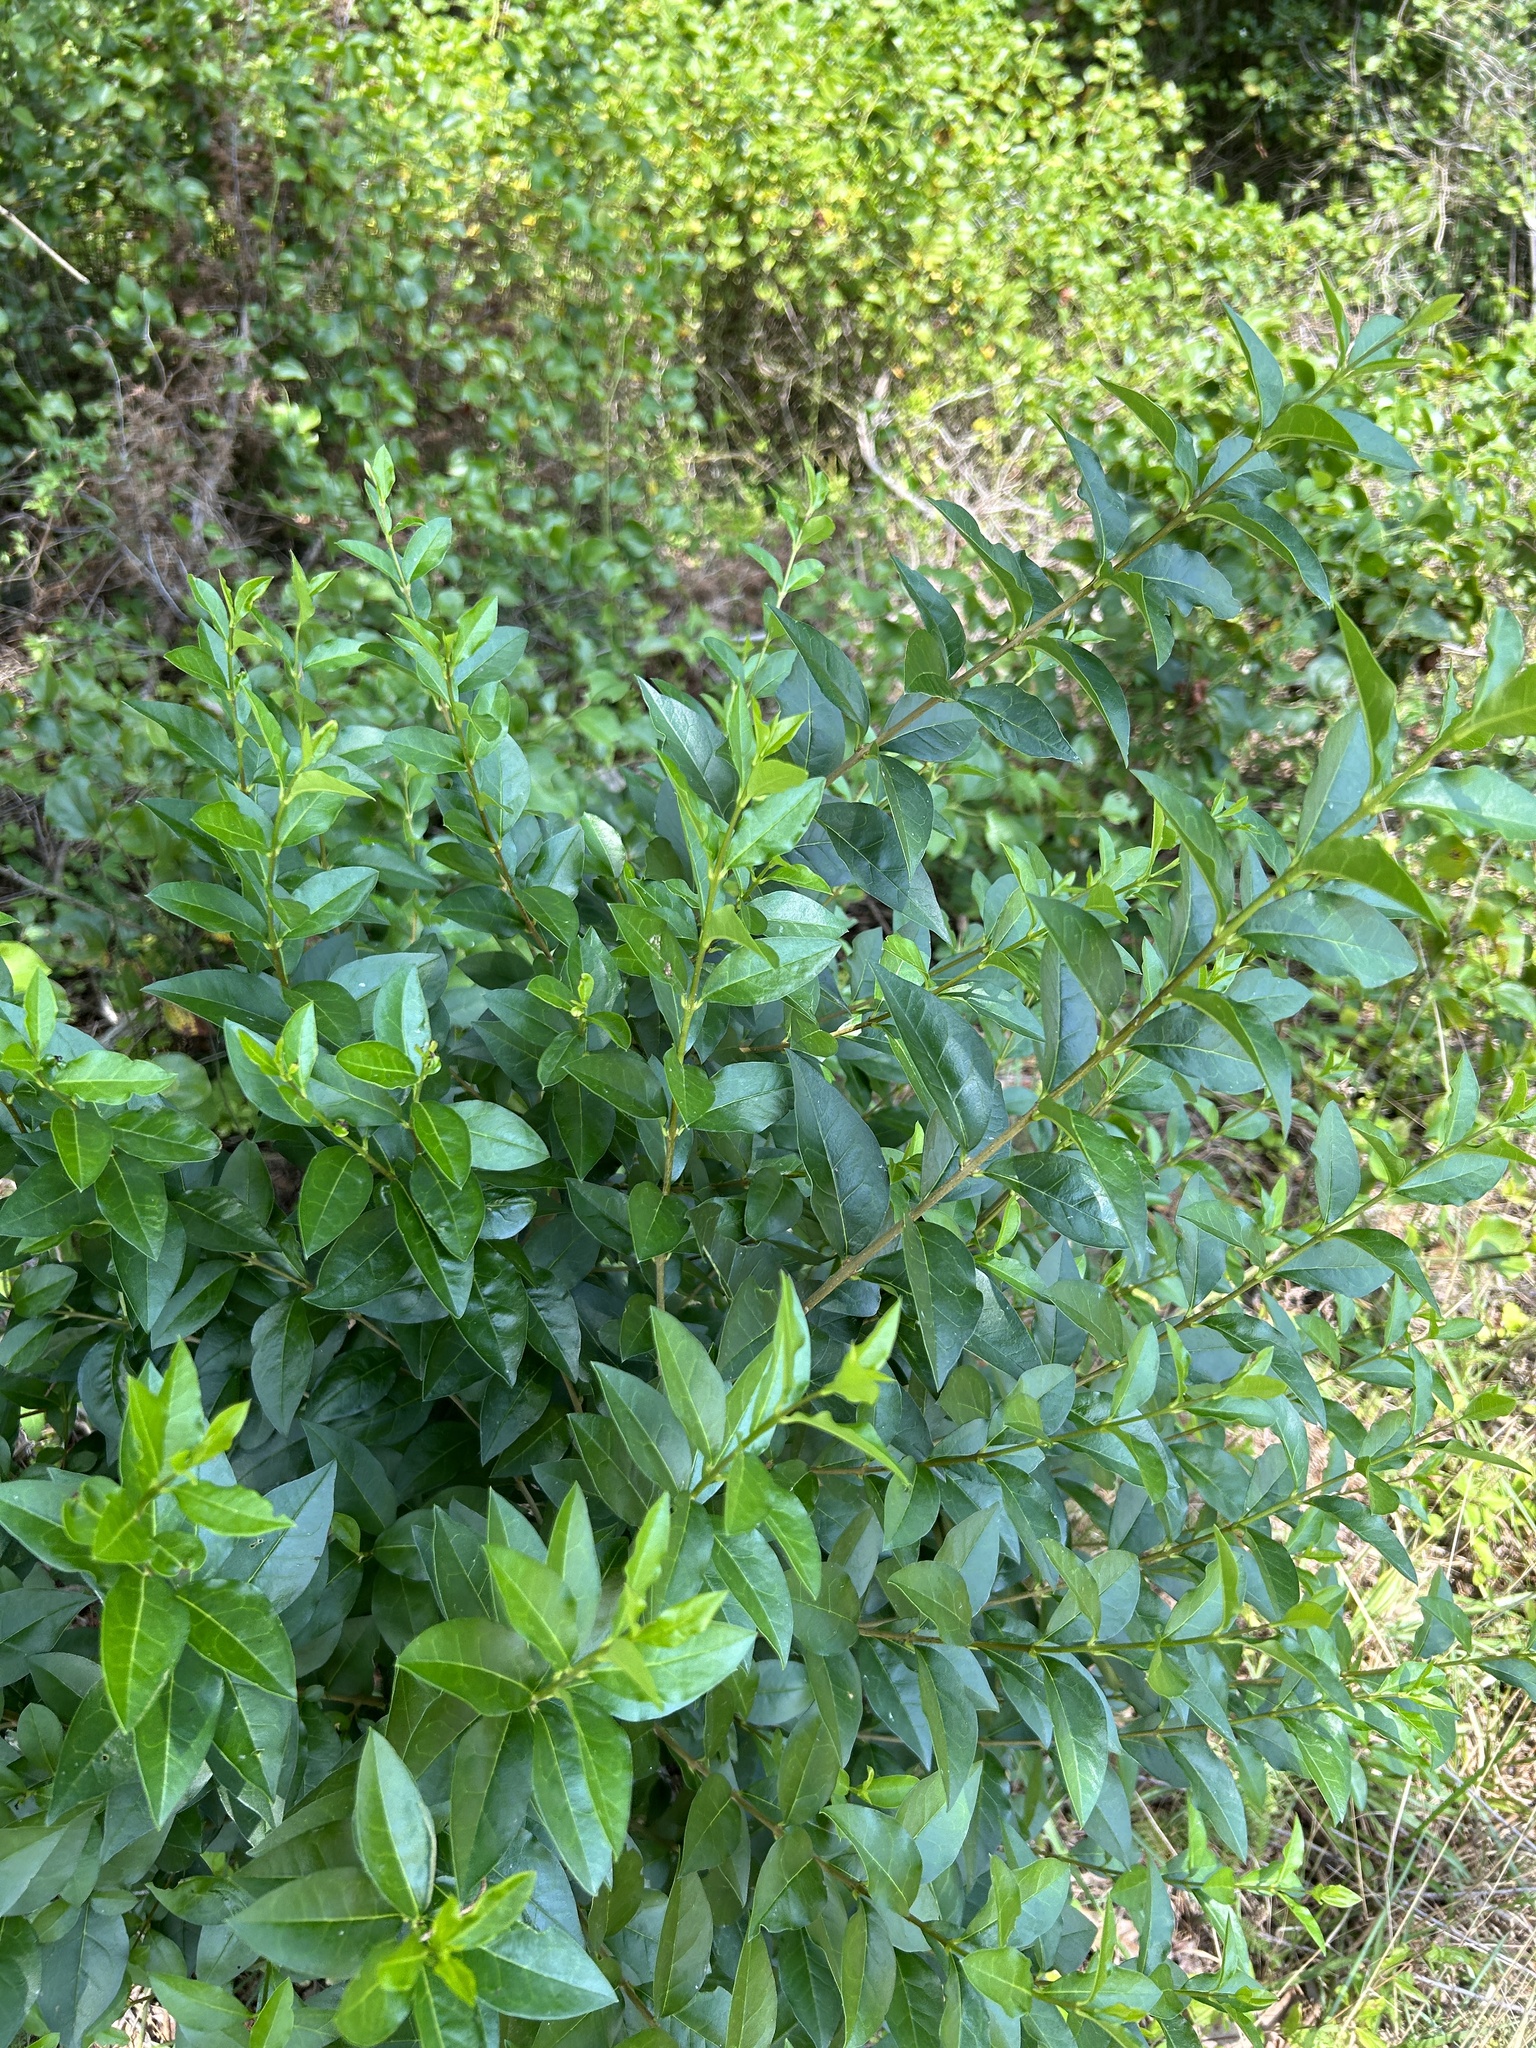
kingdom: Plantae
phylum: Tracheophyta
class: Magnoliopsida
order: Lamiales
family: Oleaceae
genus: Ligustrum
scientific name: Ligustrum ovalifolium
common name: California privet
